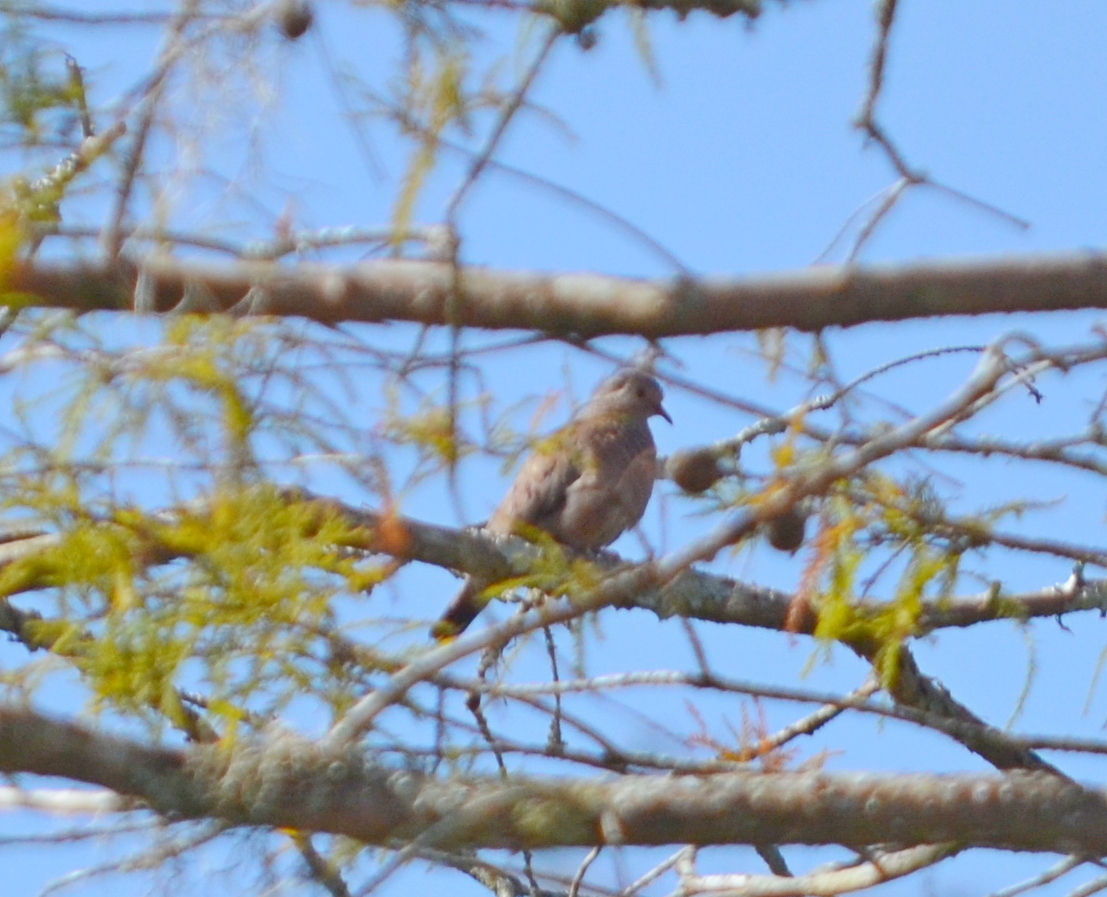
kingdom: Animalia
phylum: Chordata
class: Aves
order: Columbiformes
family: Columbidae
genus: Columbina
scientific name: Columbina passerina
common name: Common ground-dove
